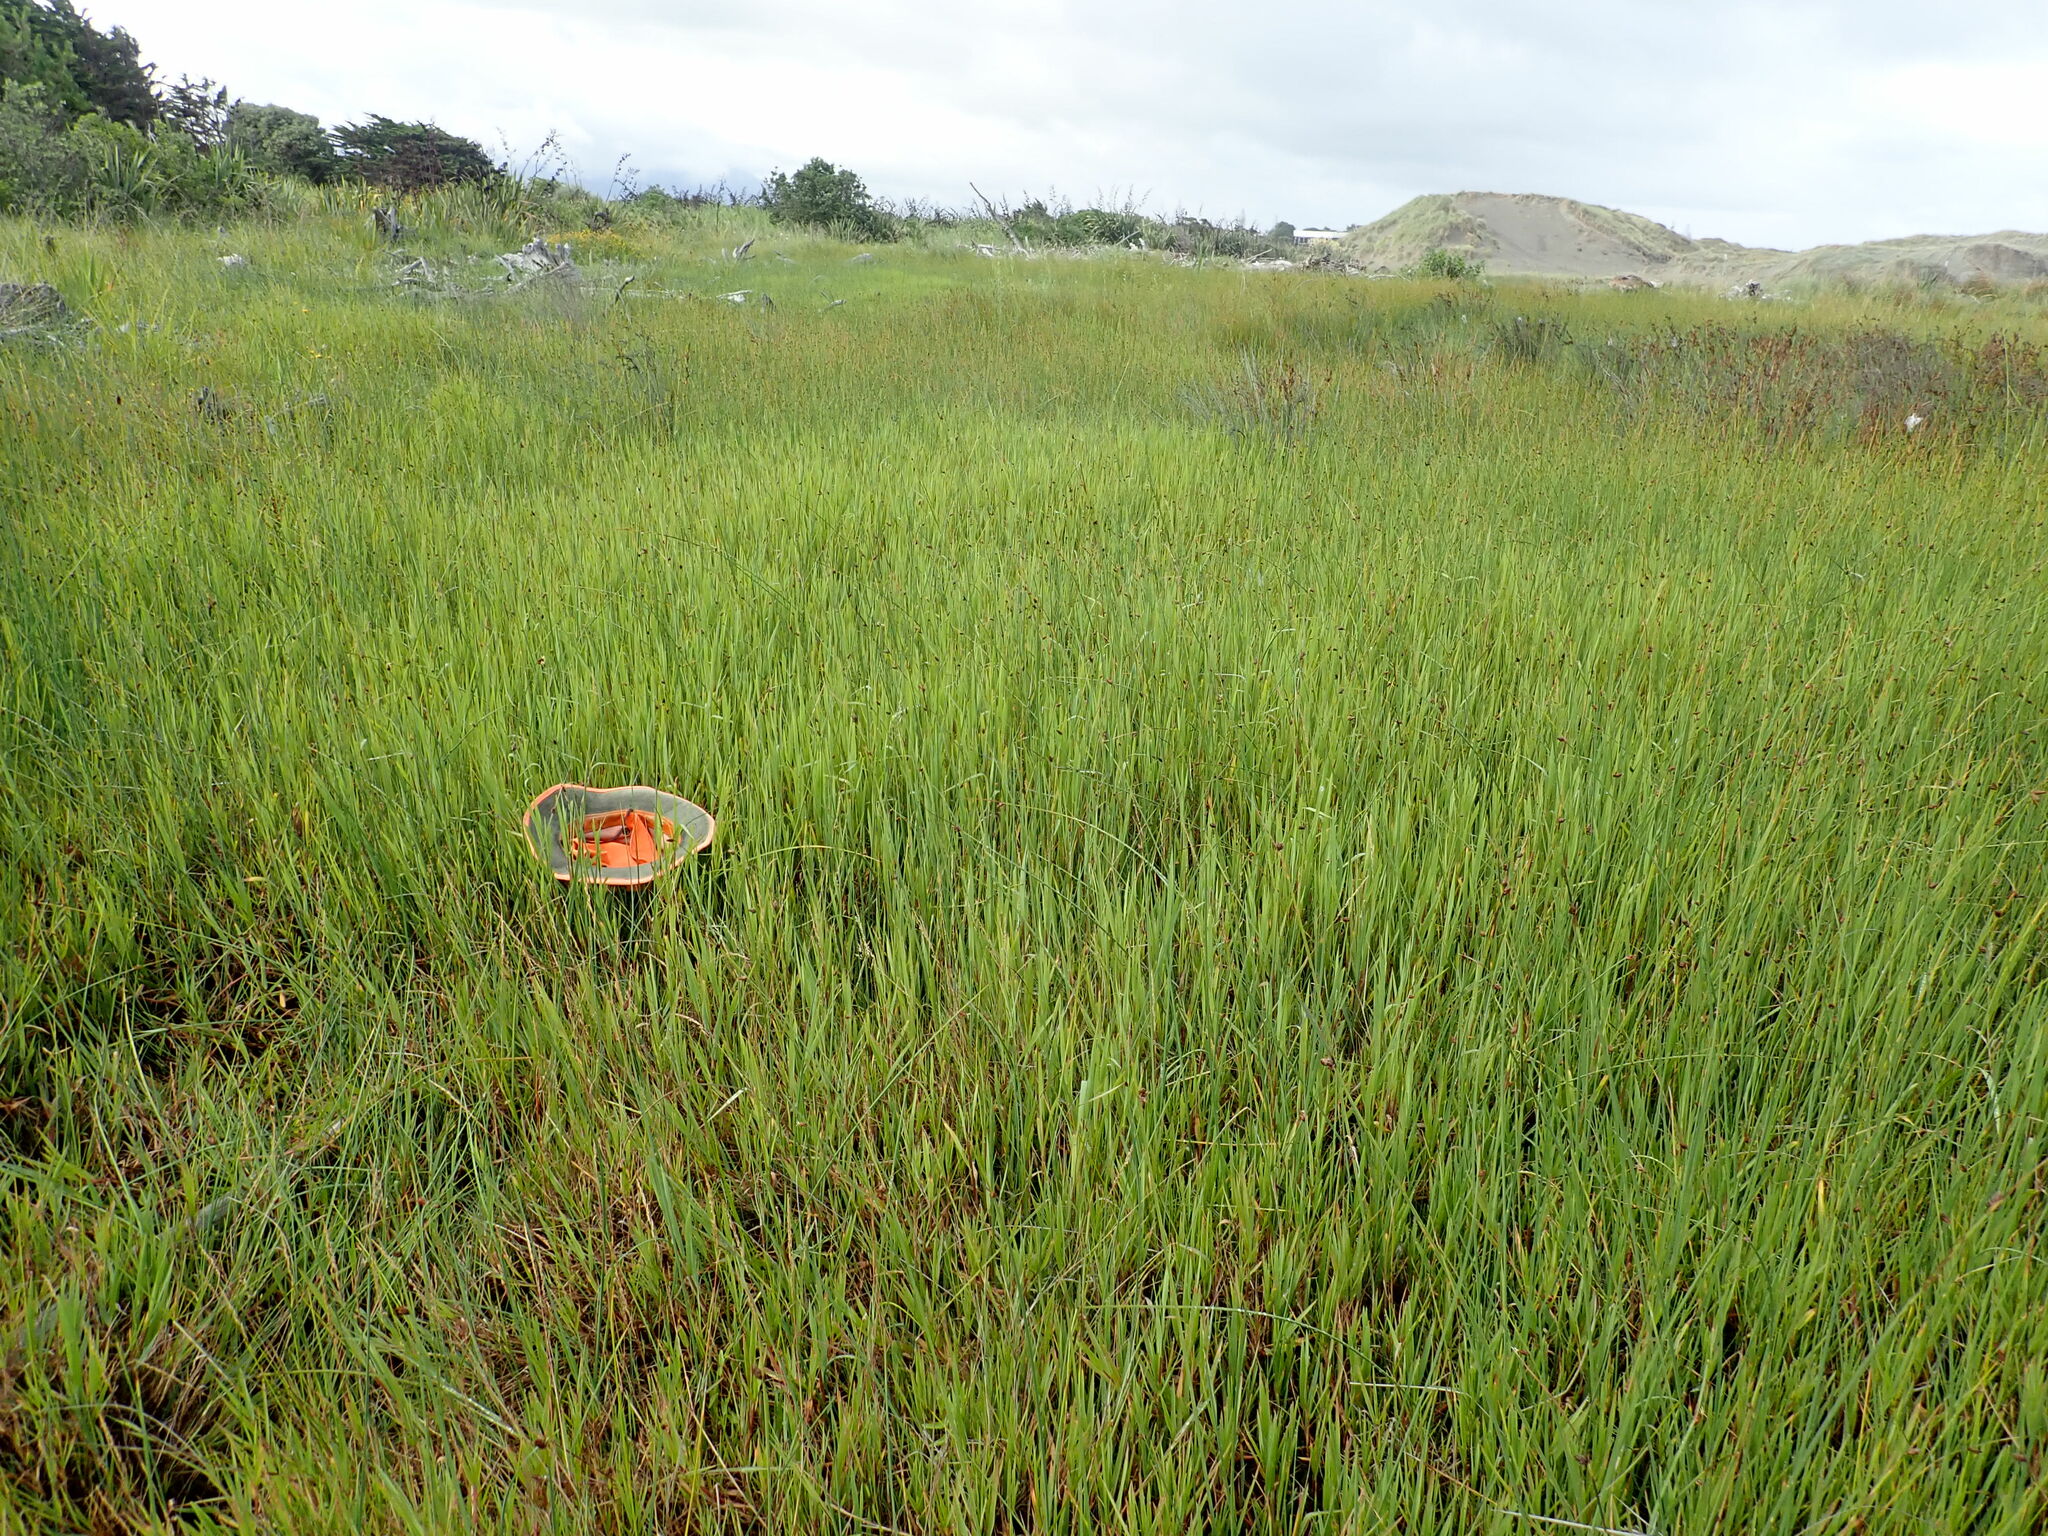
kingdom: Plantae
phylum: Tracheophyta
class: Liliopsida
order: Poales
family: Cyperaceae
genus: Schoenoplectus
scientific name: Schoenoplectus pungens
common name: Sharp club-rush
